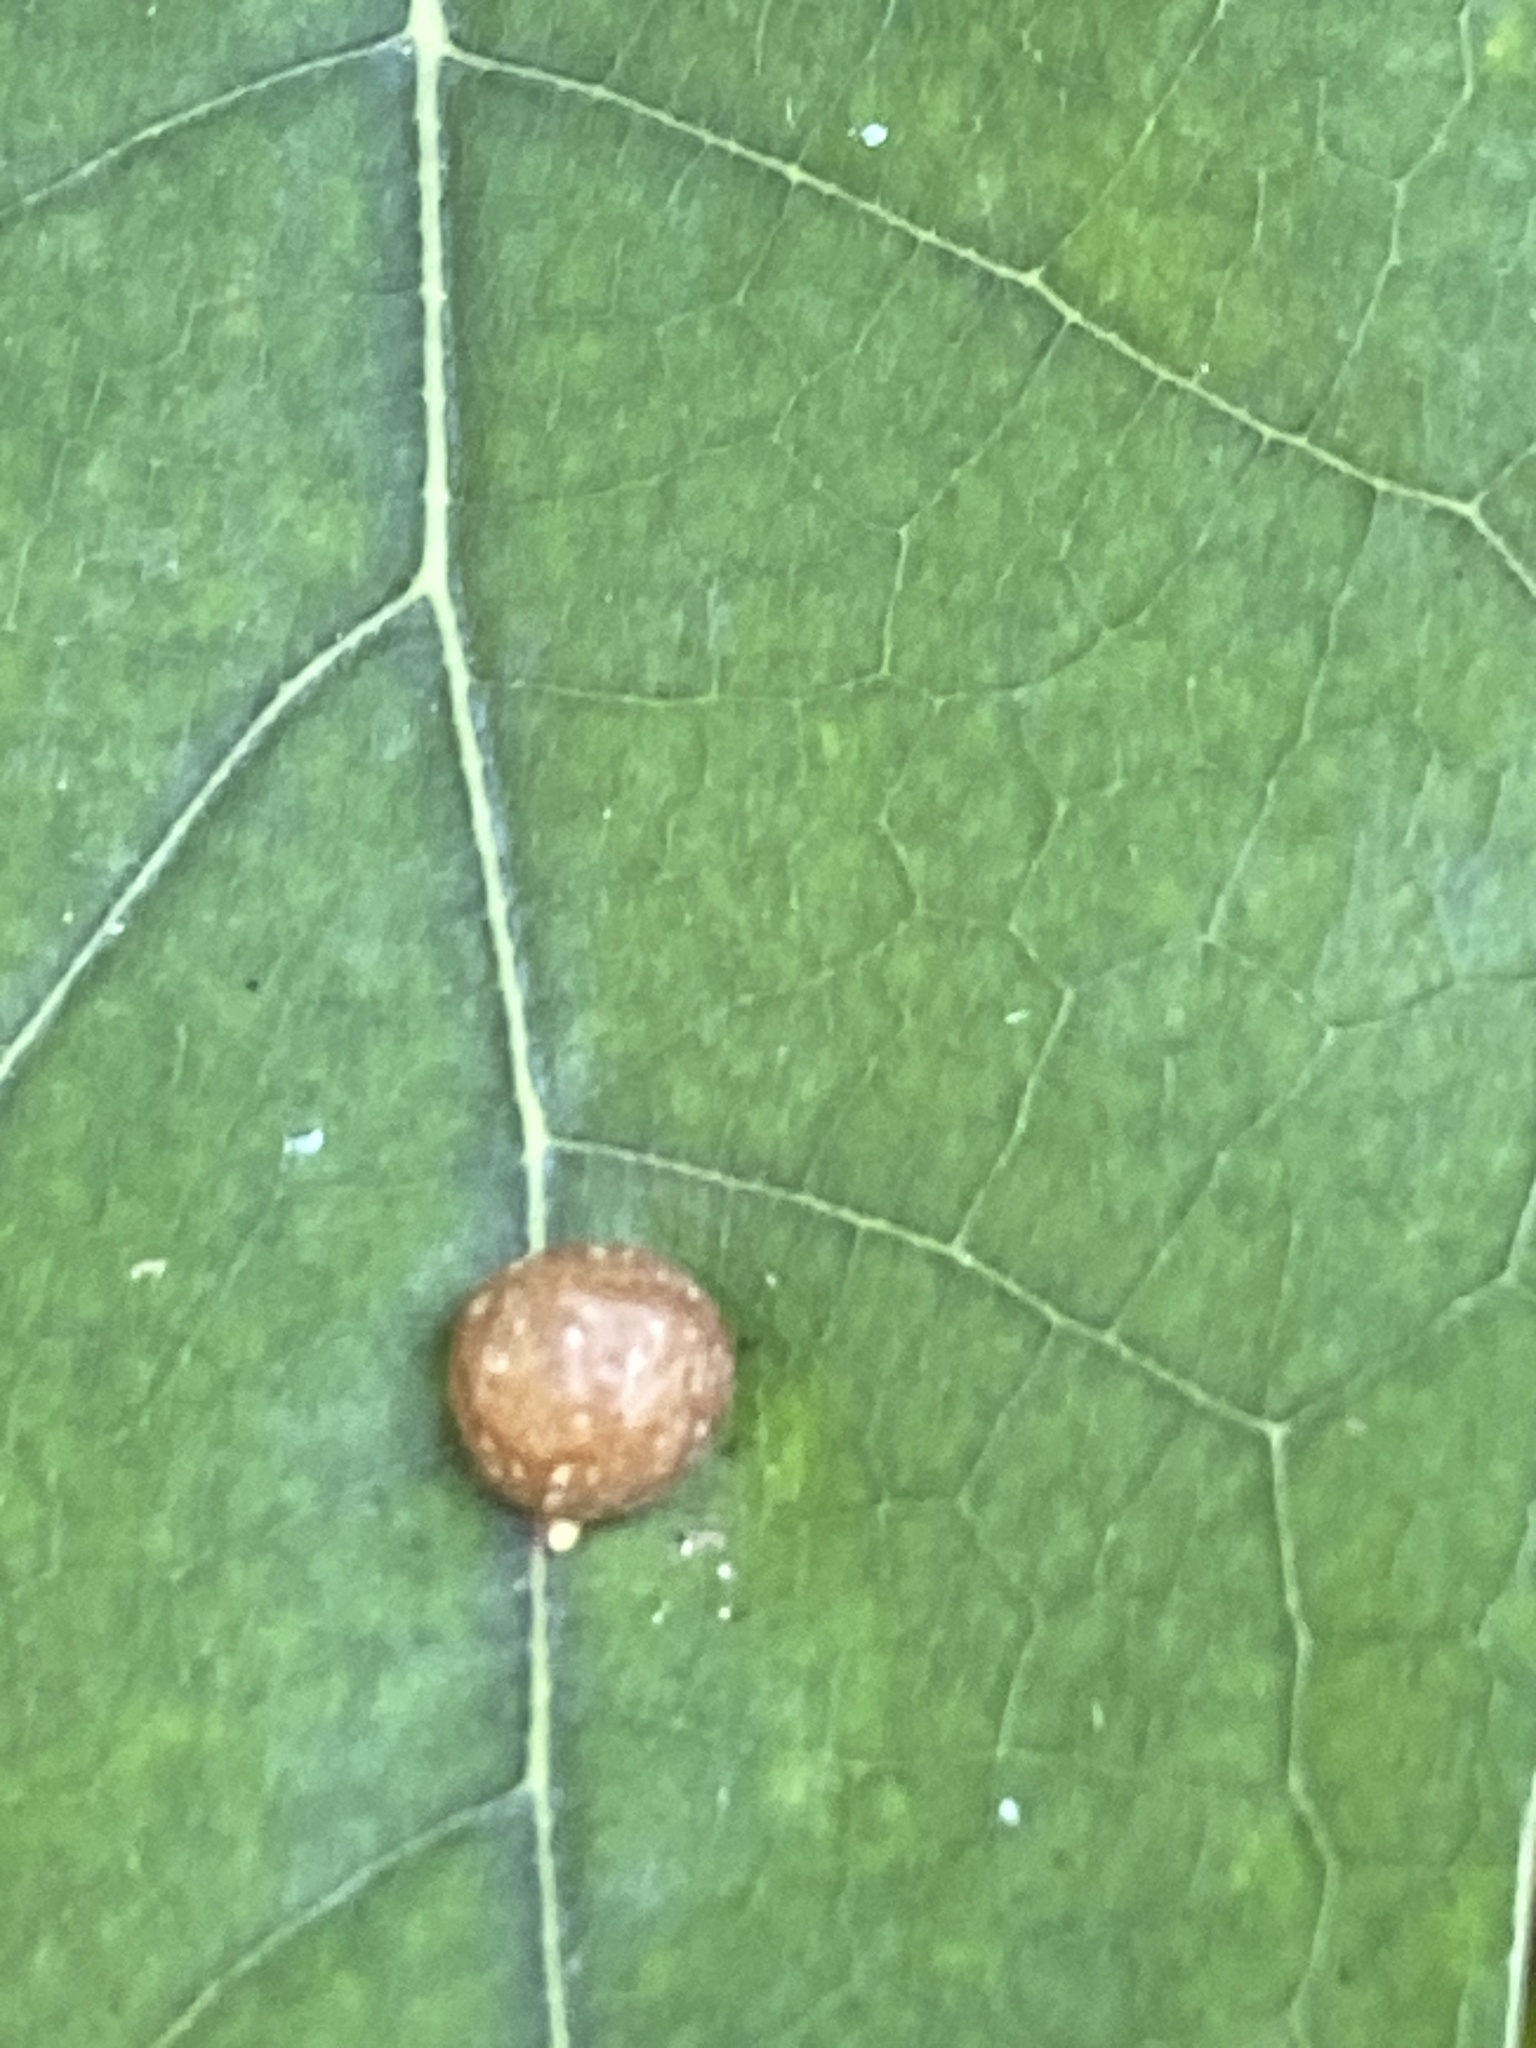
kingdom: Animalia
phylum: Arthropoda
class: Insecta
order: Diptera
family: Cecidomyiidae
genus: Polystepha
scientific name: Polystepha pilulae
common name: Oak leaf gall midge
